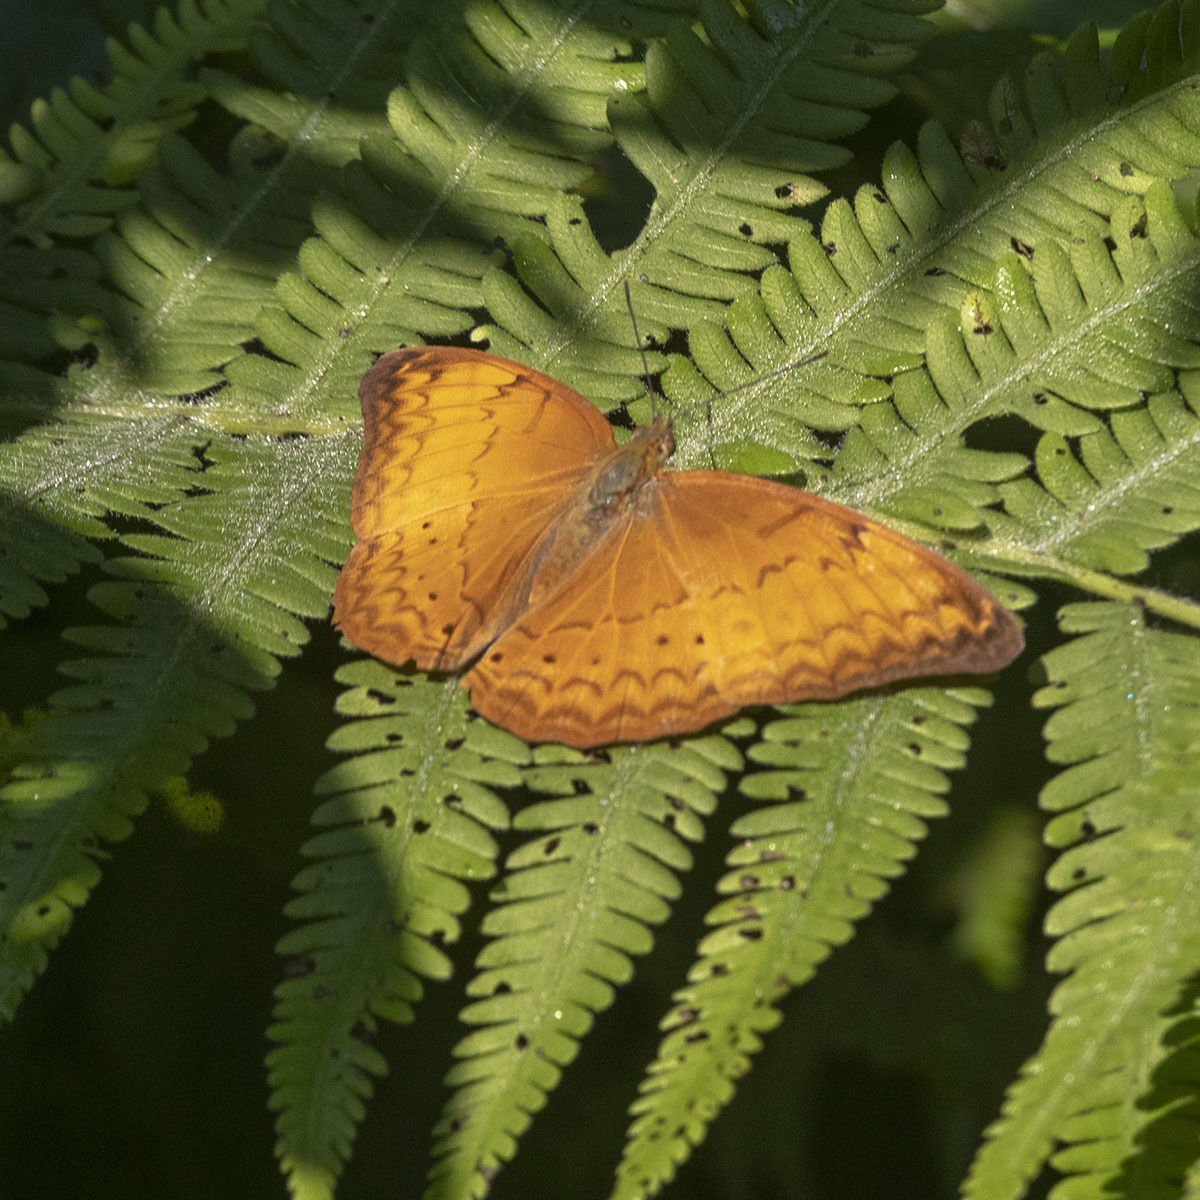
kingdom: Animalia
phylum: Arthropoda
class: Insecta
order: Lepidoptera
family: Nymphalidae
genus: Cirrochroa
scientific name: Cirrochroa tyche
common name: Common yeoman
